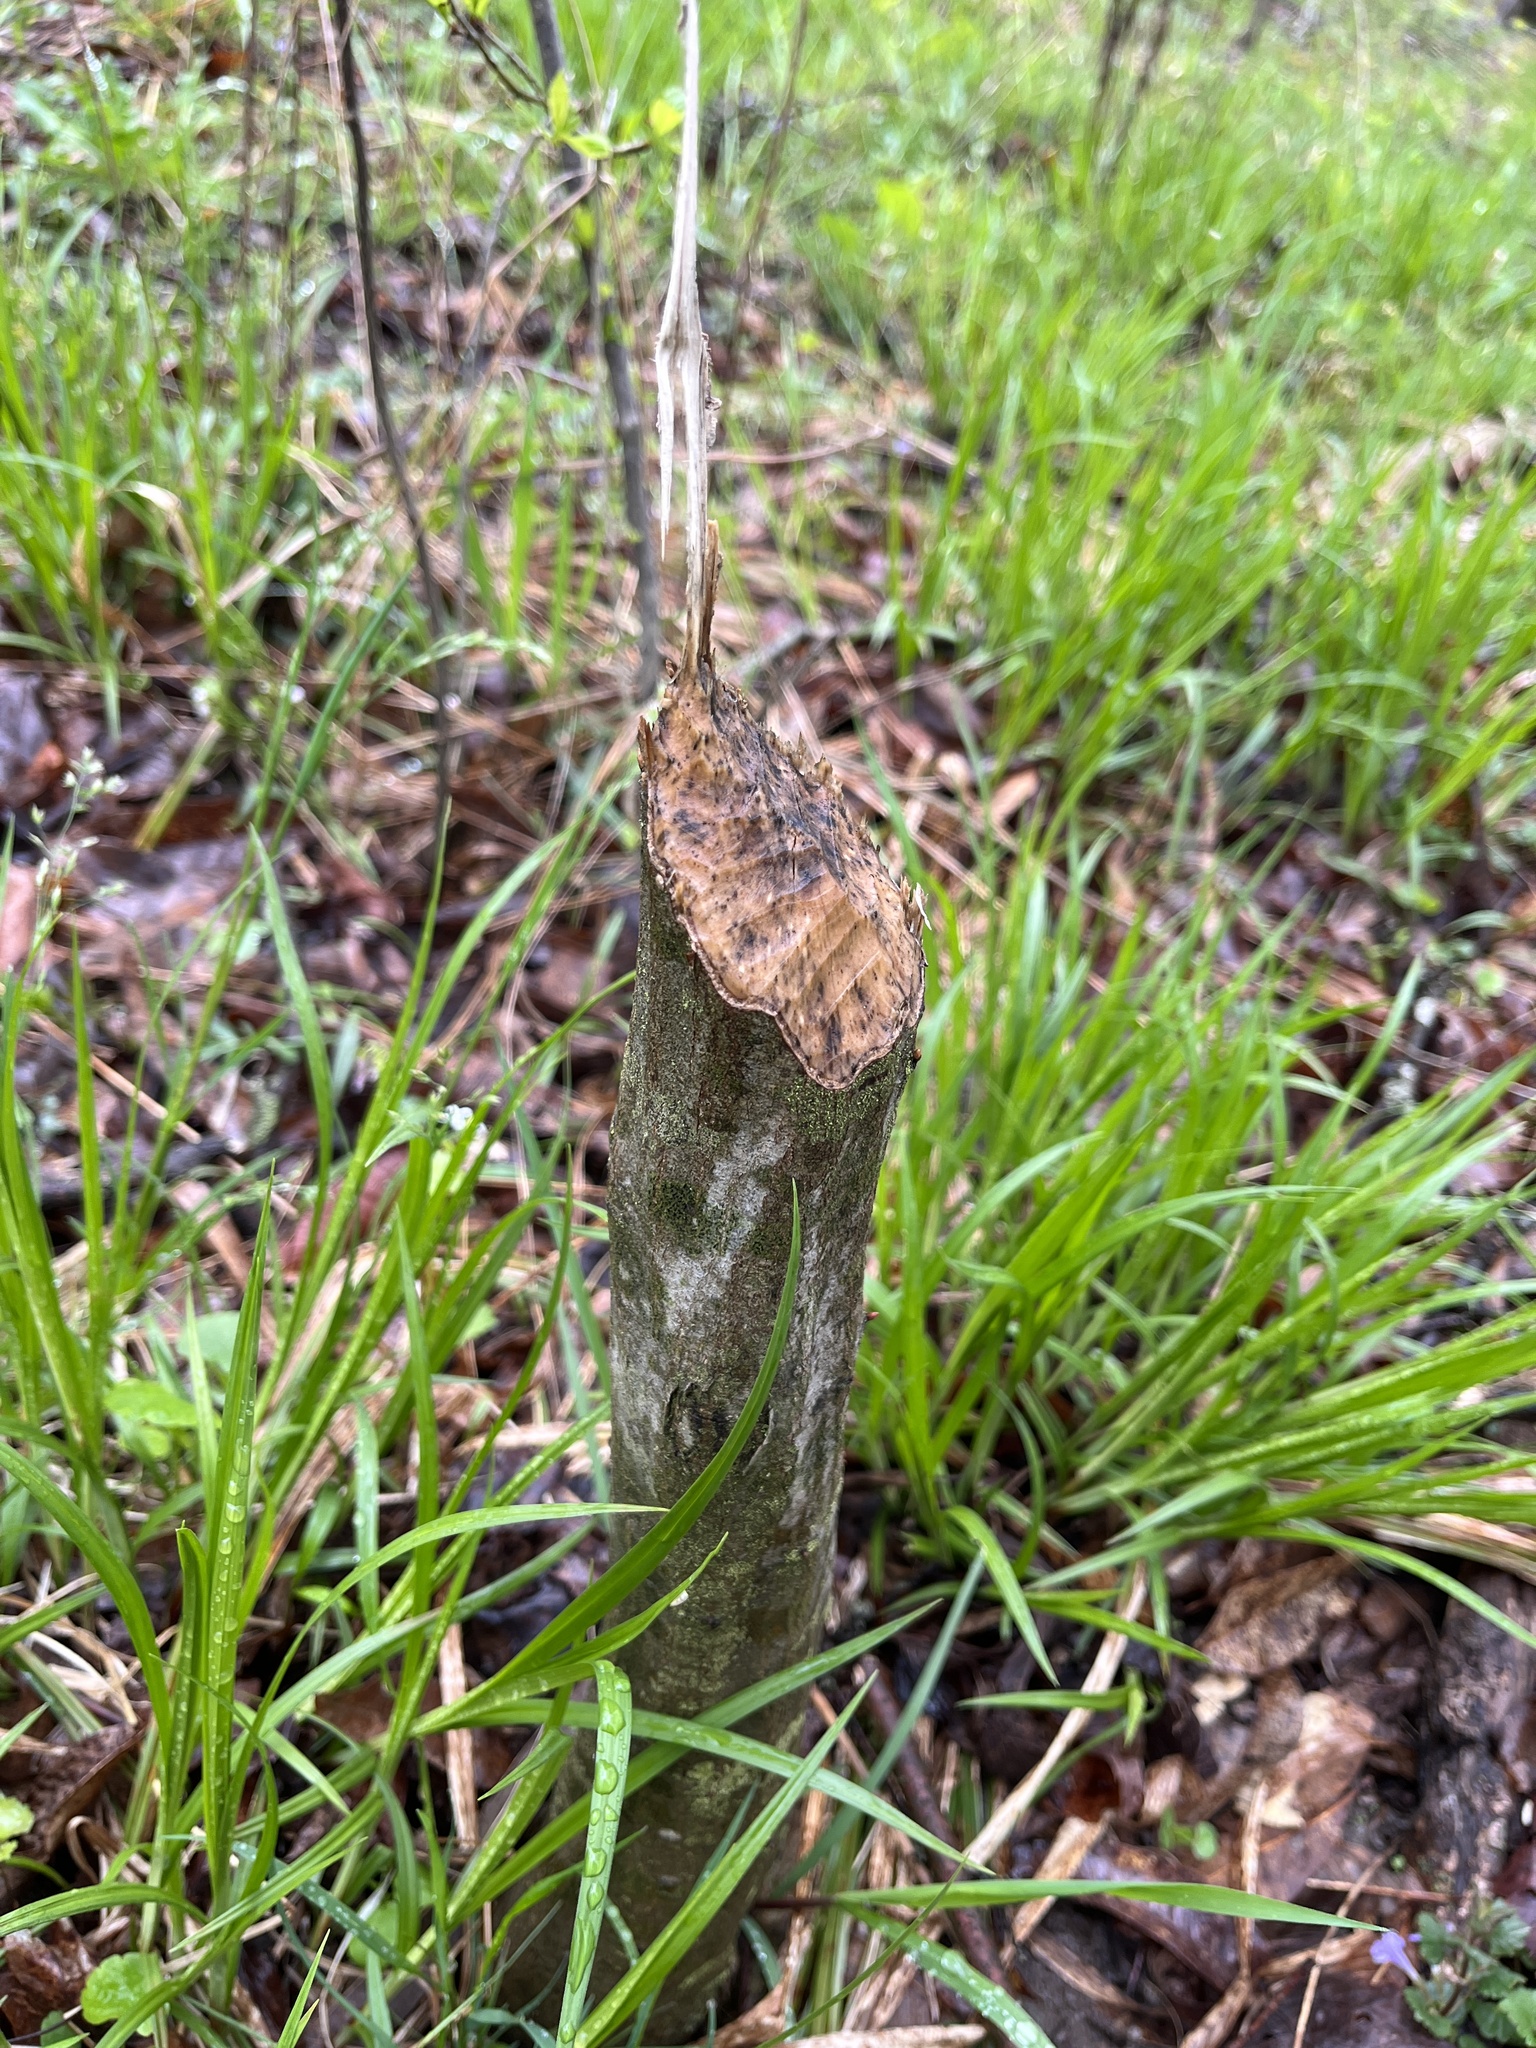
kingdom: Animalia
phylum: Chordata
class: Mammalia
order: Rodentia
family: Castoridae
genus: Castor
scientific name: Castor canadensis
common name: American beaver
